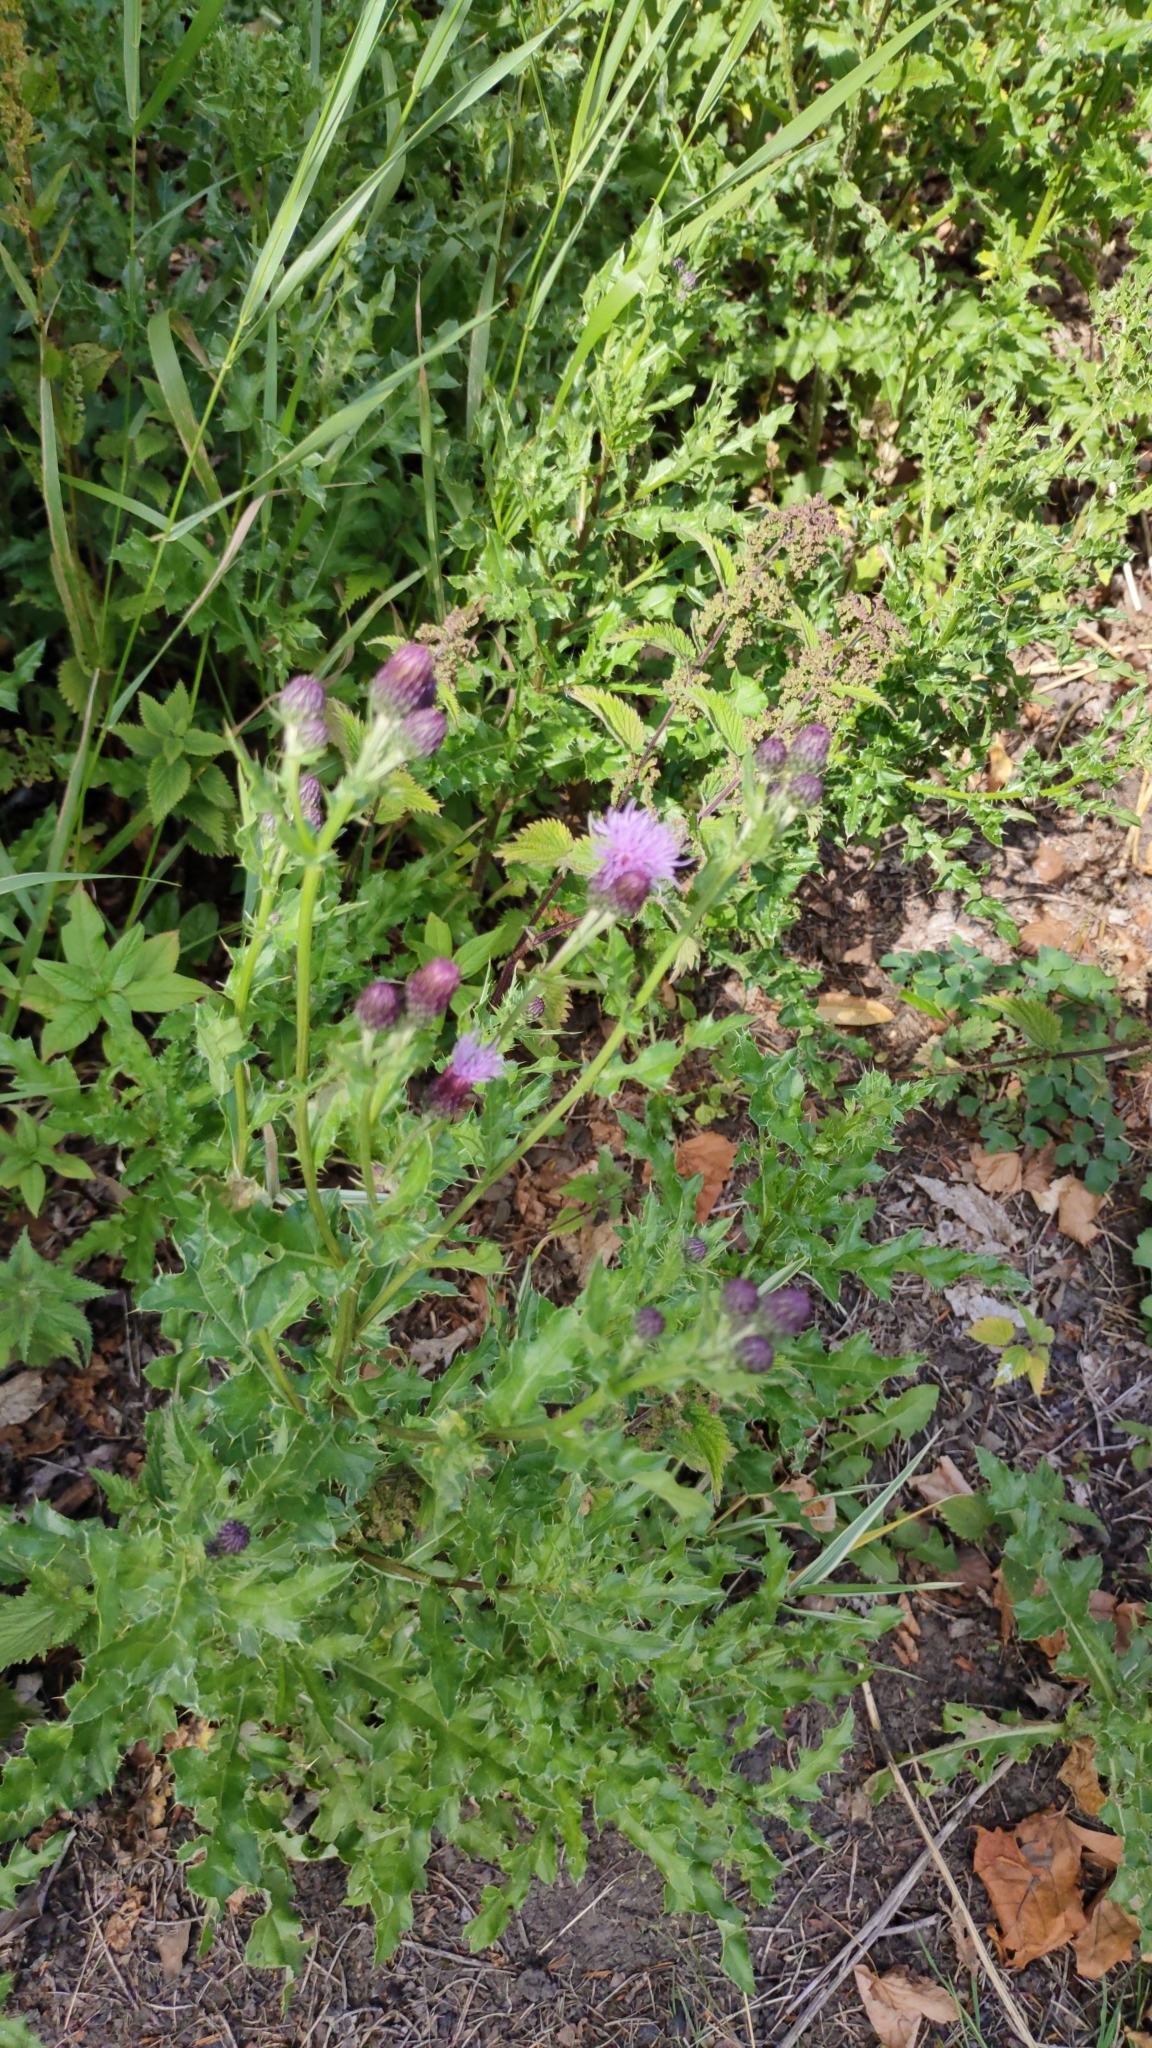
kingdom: Plantae
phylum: Tracheophyta
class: Magnoliopsida
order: Asterales
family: Asteraceae
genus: Cirsium
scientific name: Cirsium arvense
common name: Creeping thistle
